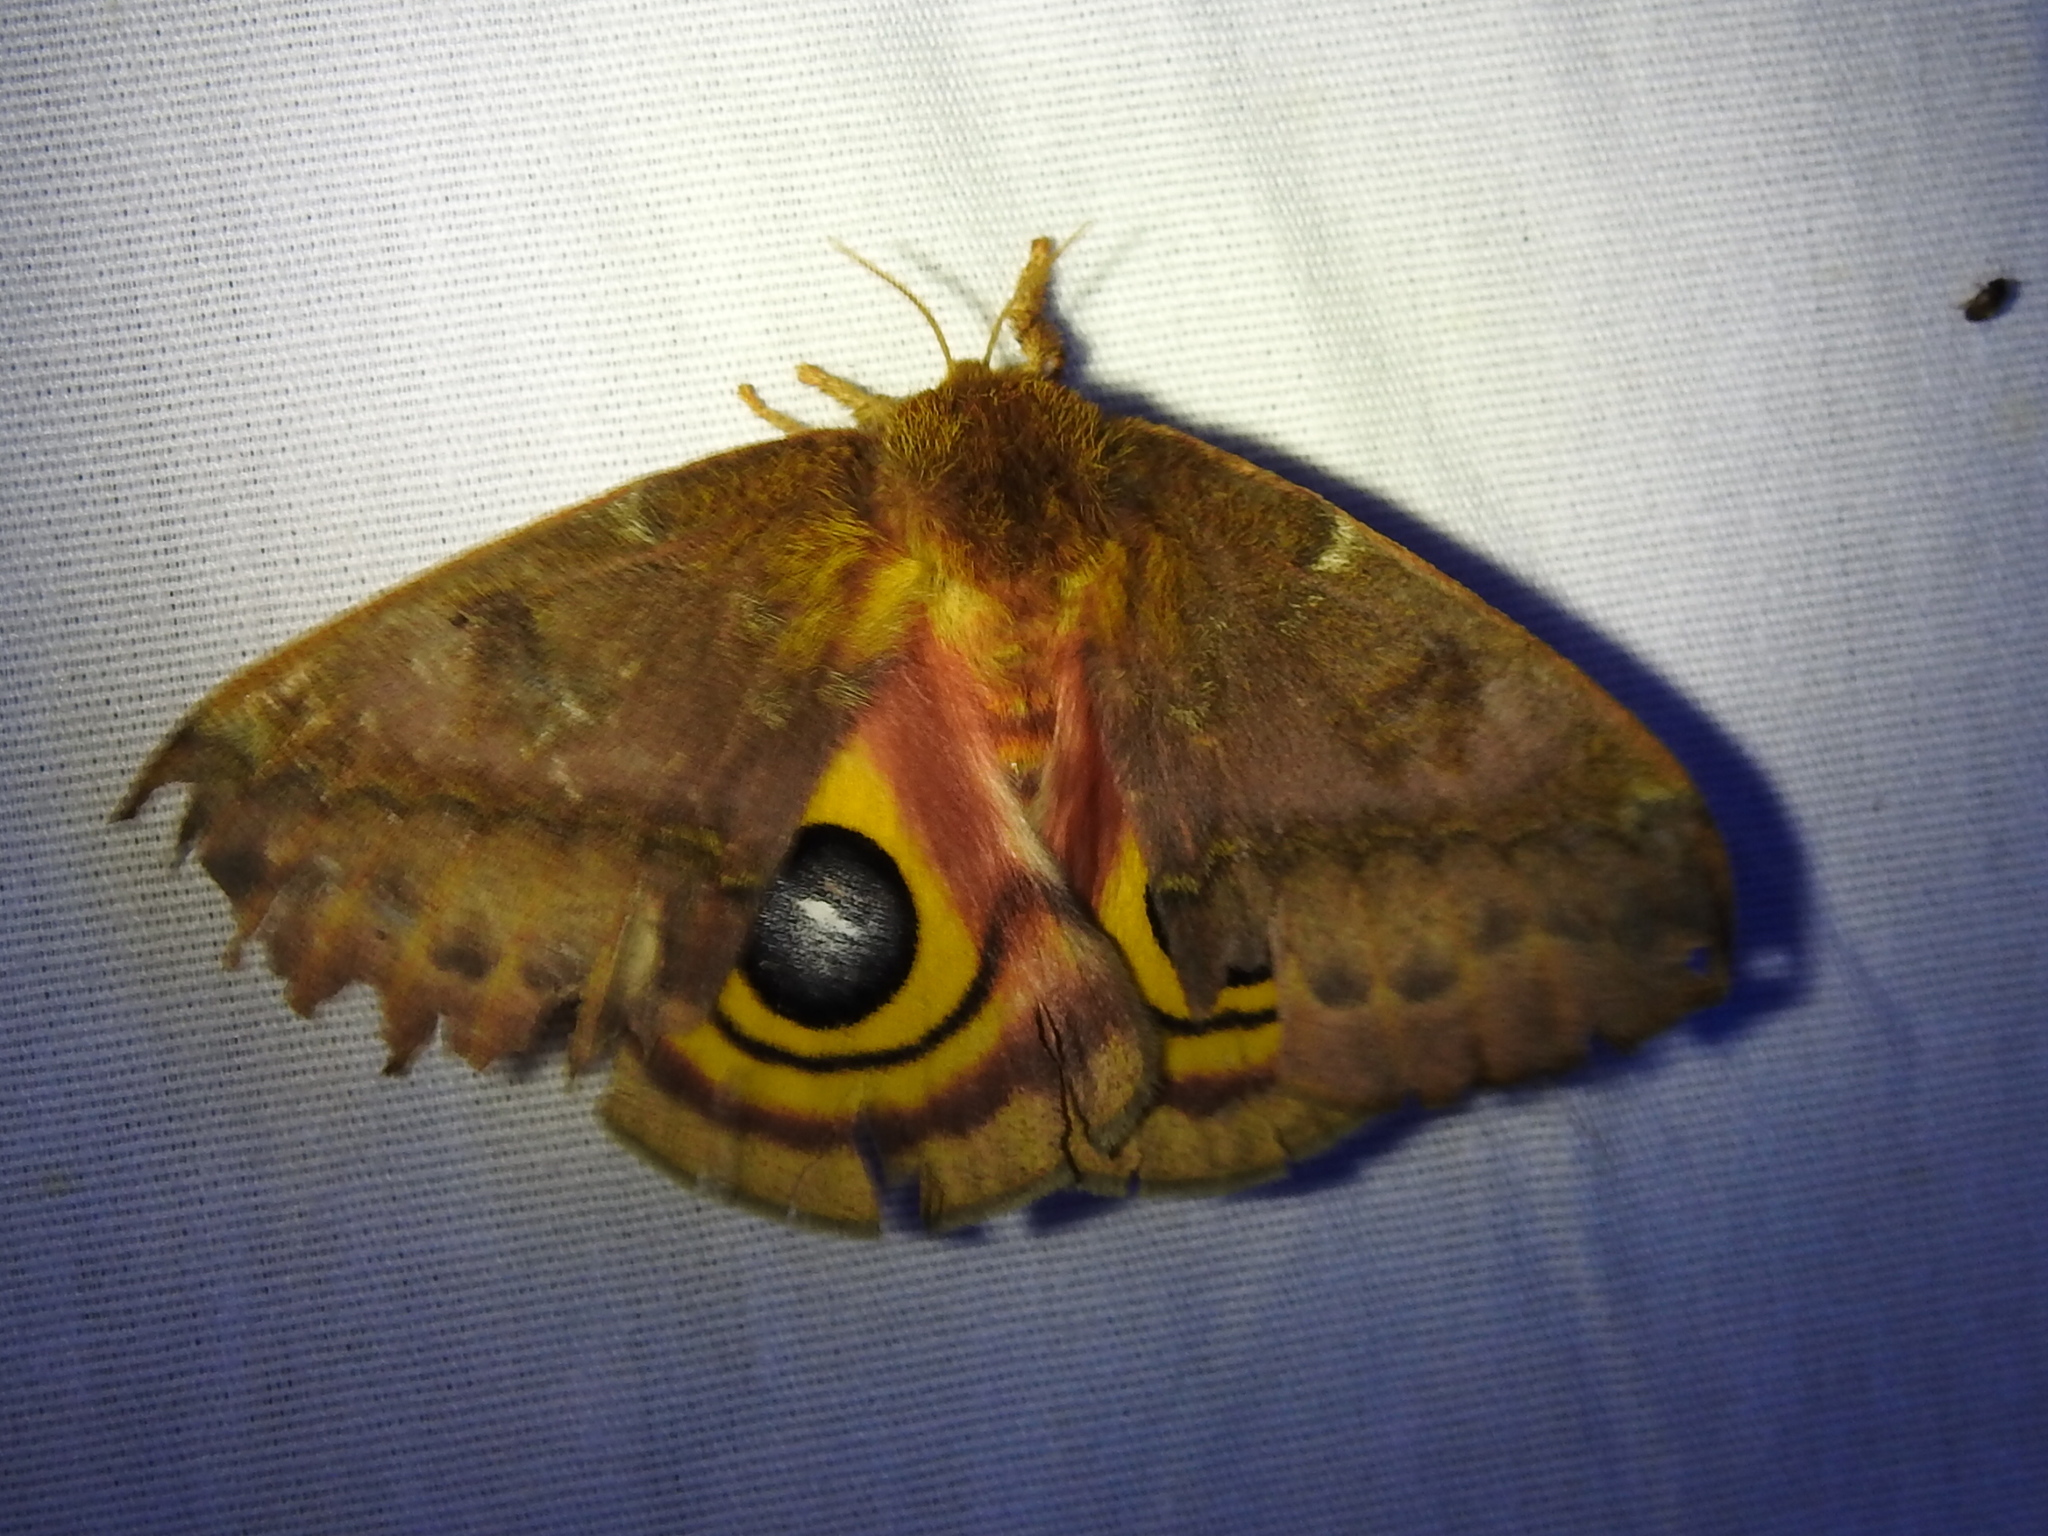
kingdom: Animalia
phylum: Arthropoda
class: Insecta
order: Lepidoptera
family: Saturniidae
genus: Automeris
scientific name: Automeris io
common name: Io moth
